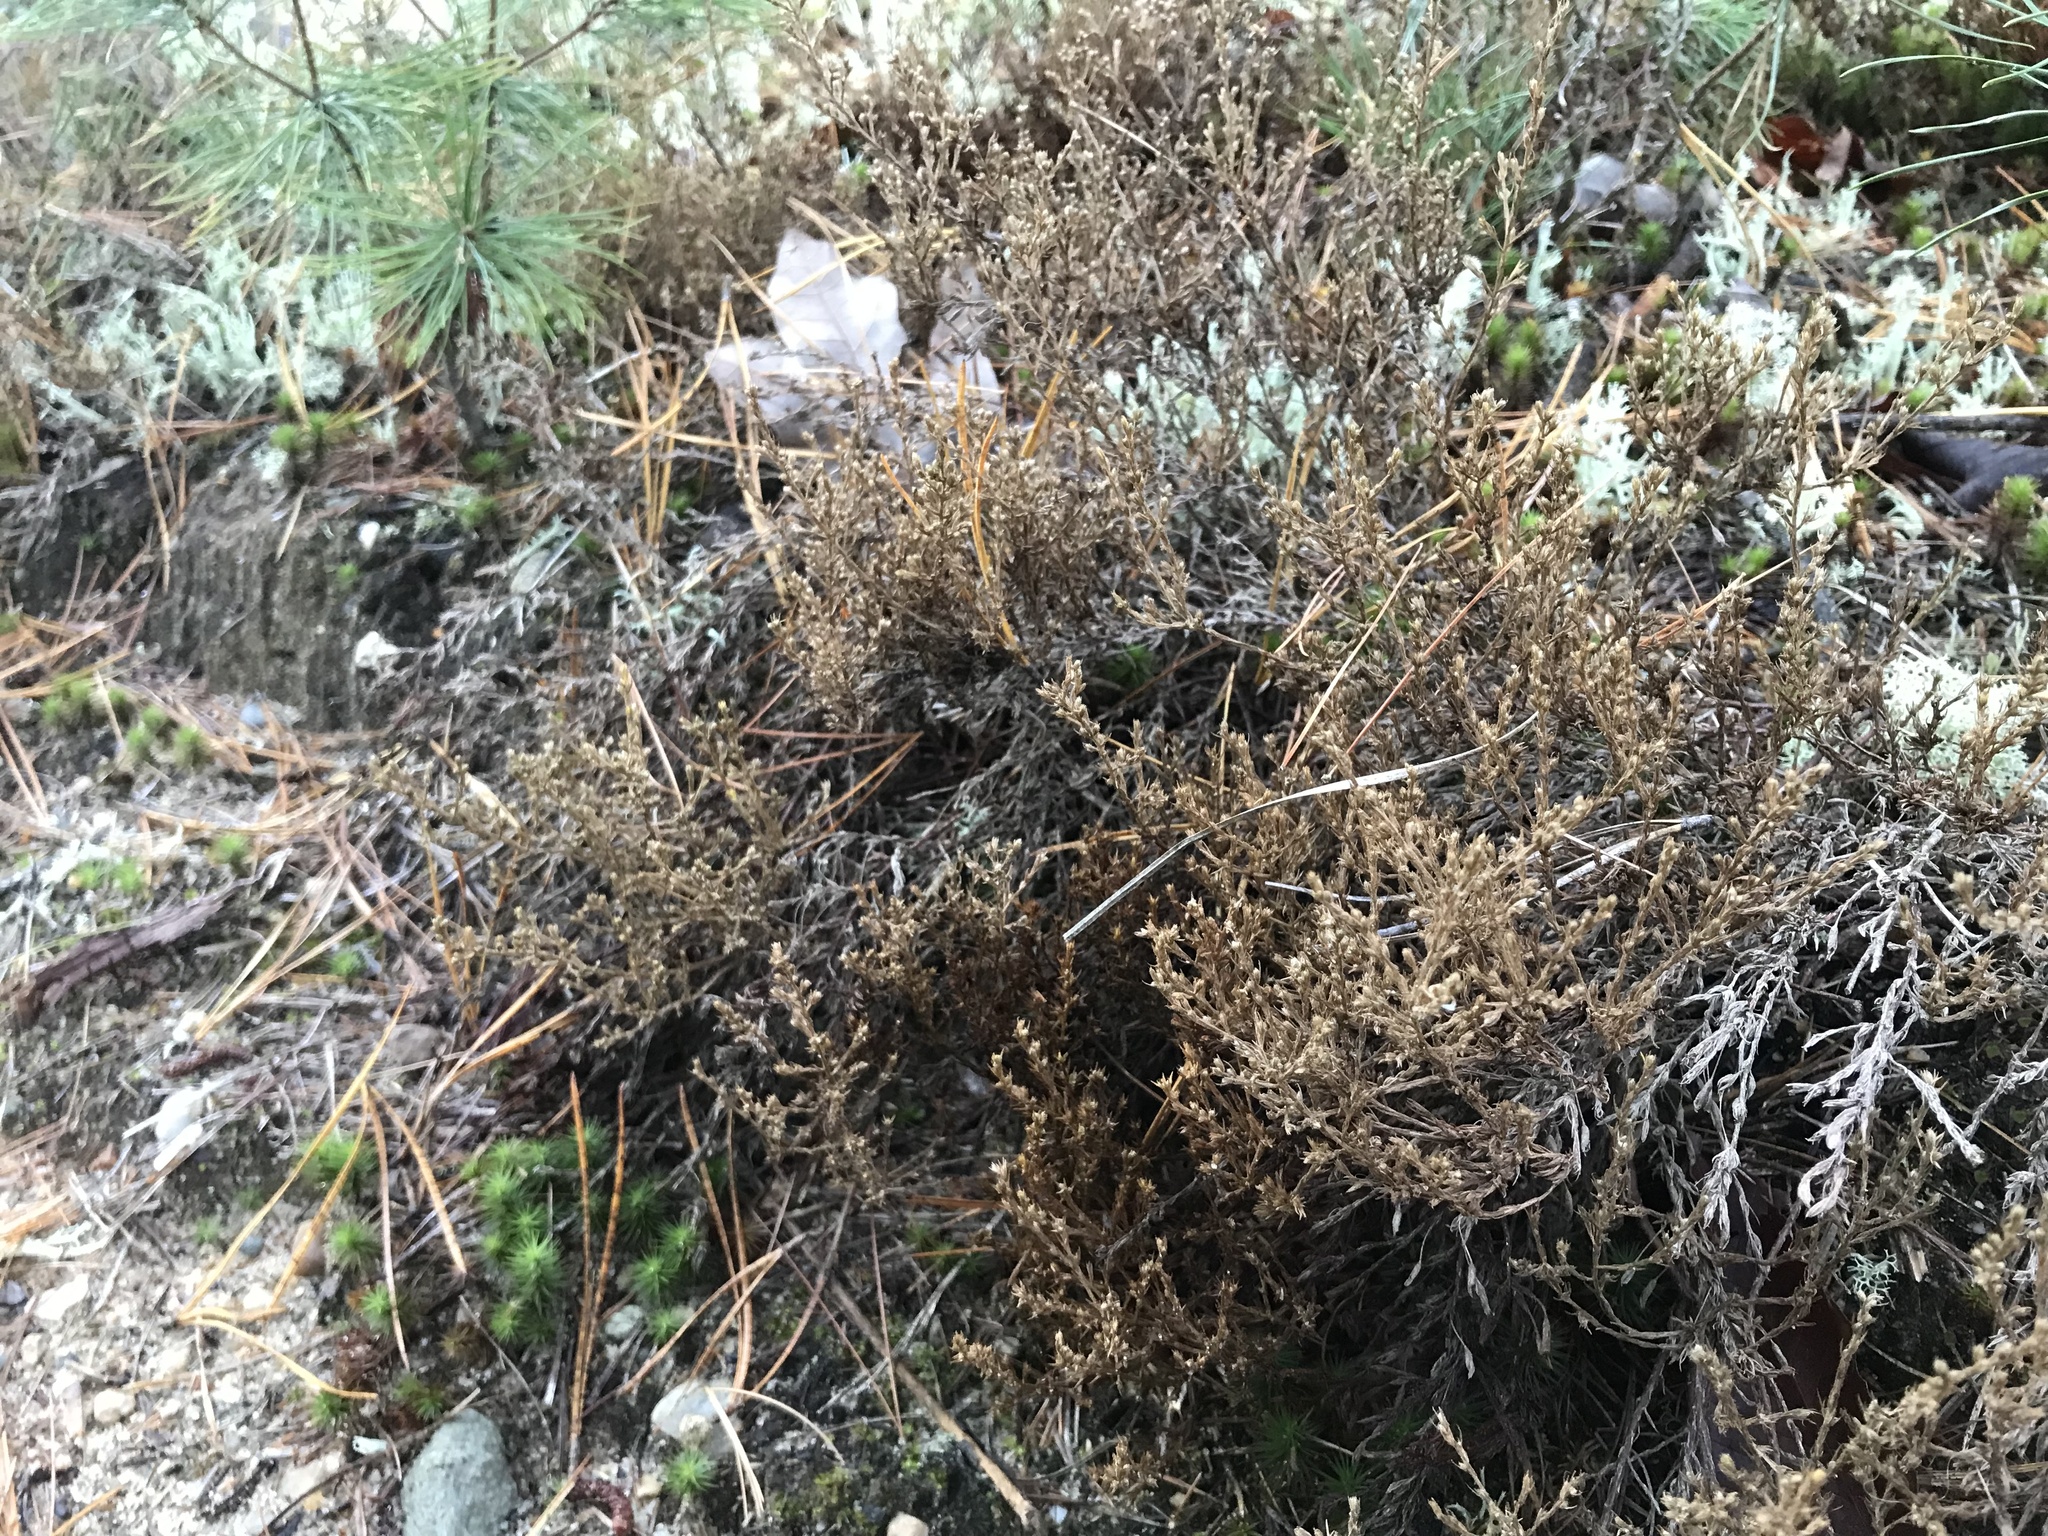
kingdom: Plantae
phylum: Tracheophyta
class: Magnoliopsida
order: Malvales
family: Cistaceae
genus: Hudsonia
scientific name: Hudsonia ericoides
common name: Golden-heather
